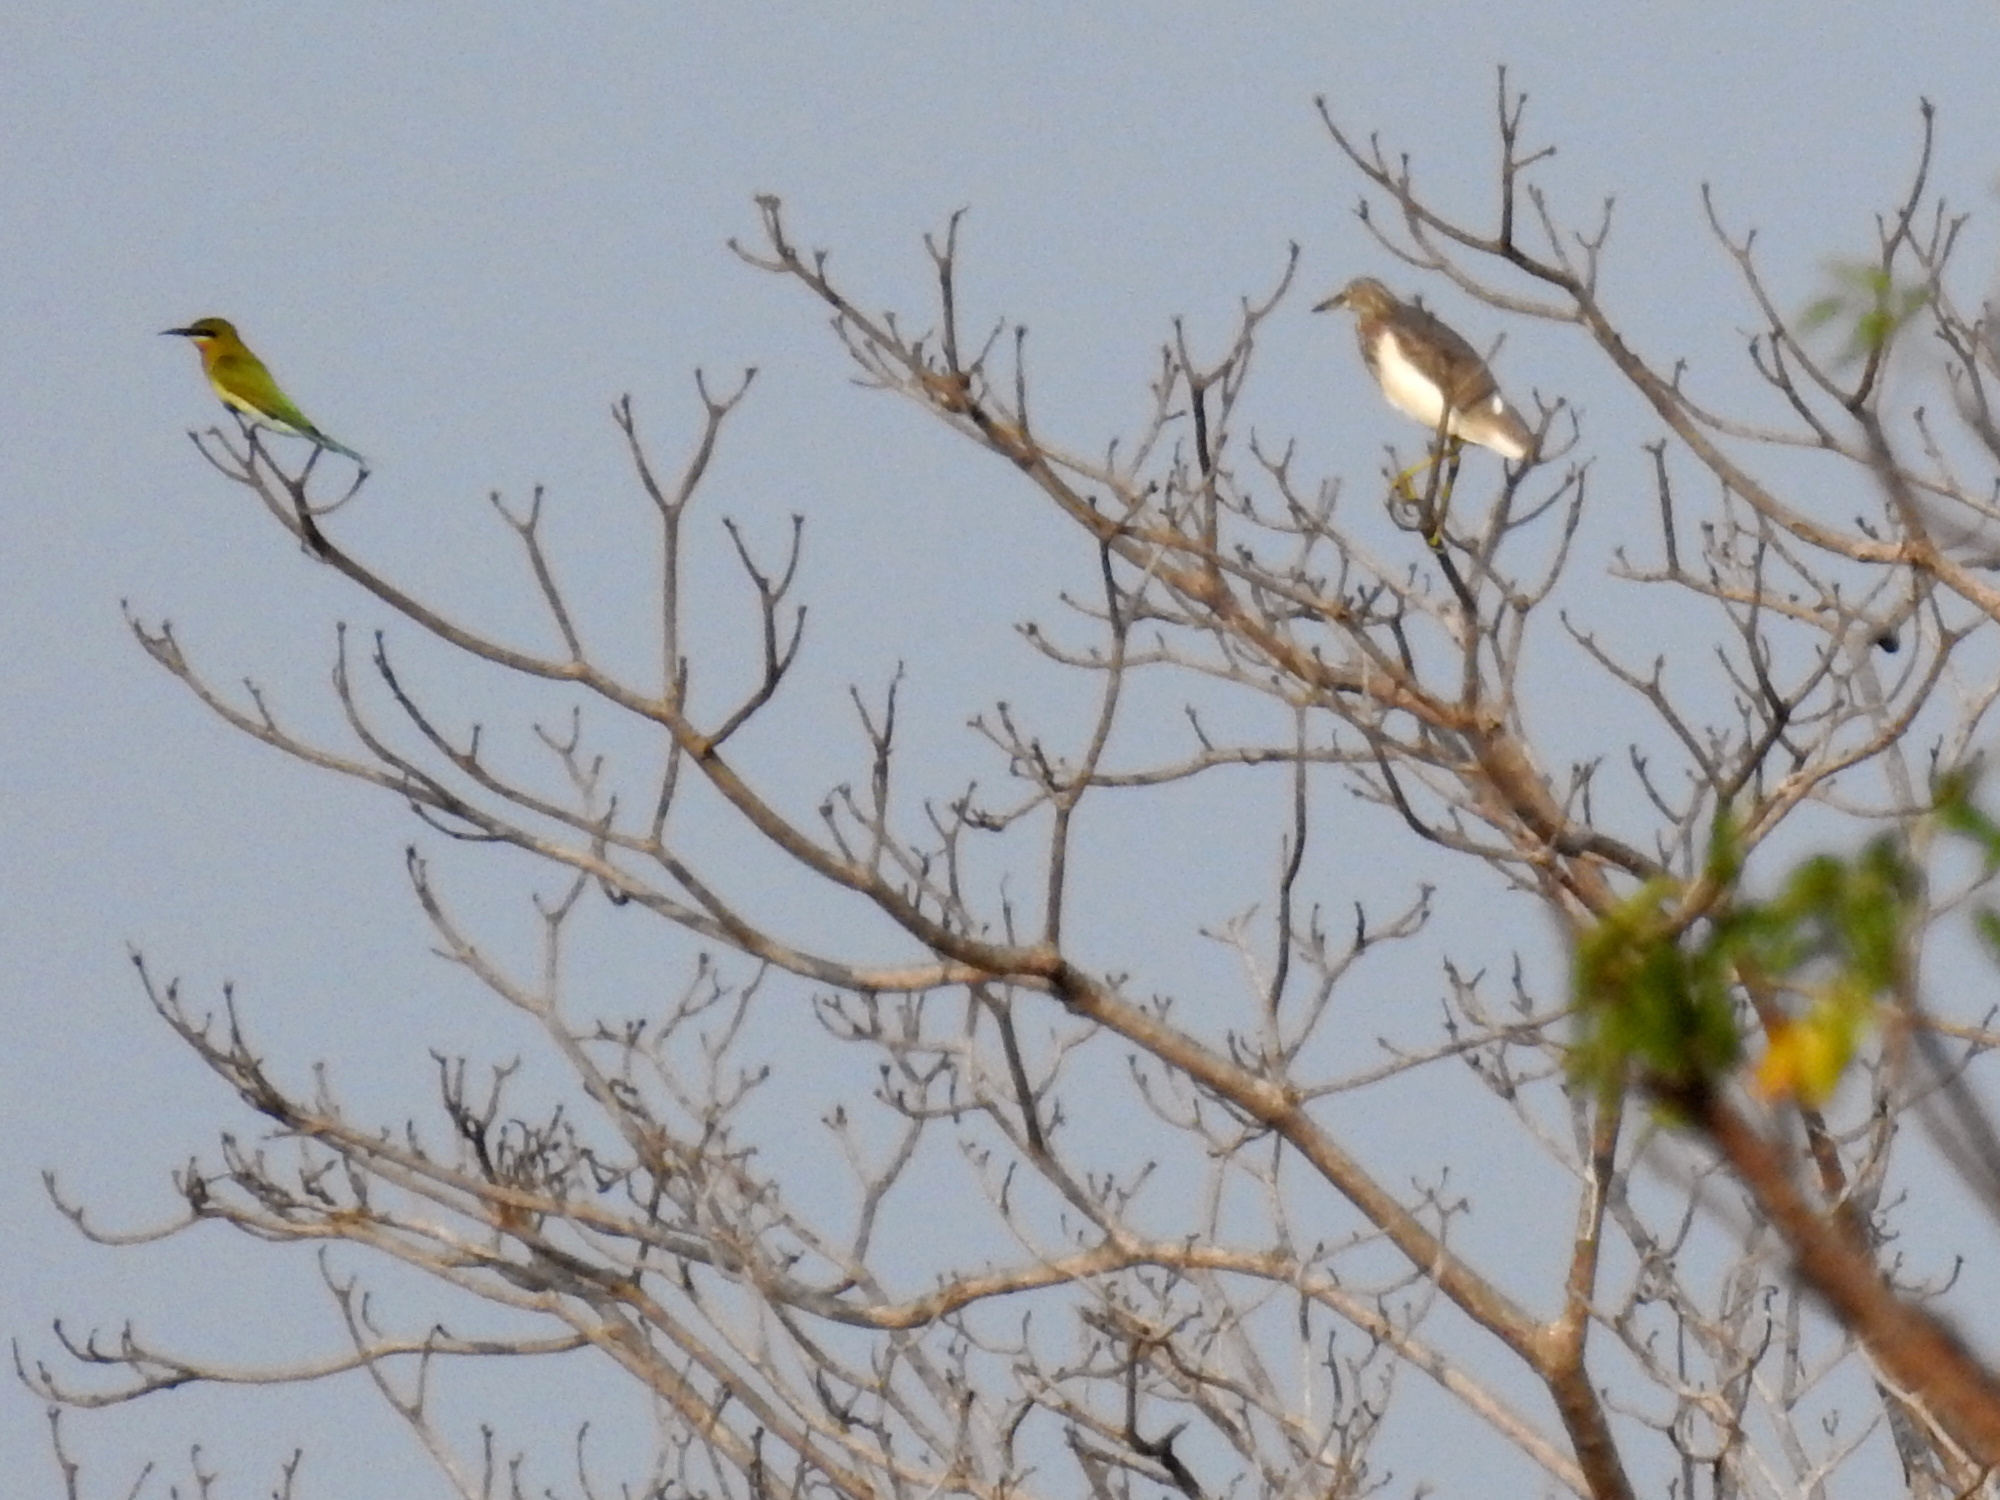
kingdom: Animalia
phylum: Chordata
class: Aves
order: Coraciiformes
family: Meropidae
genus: Merops
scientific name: Merops philippinus
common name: Blue-tailed bee-eater
